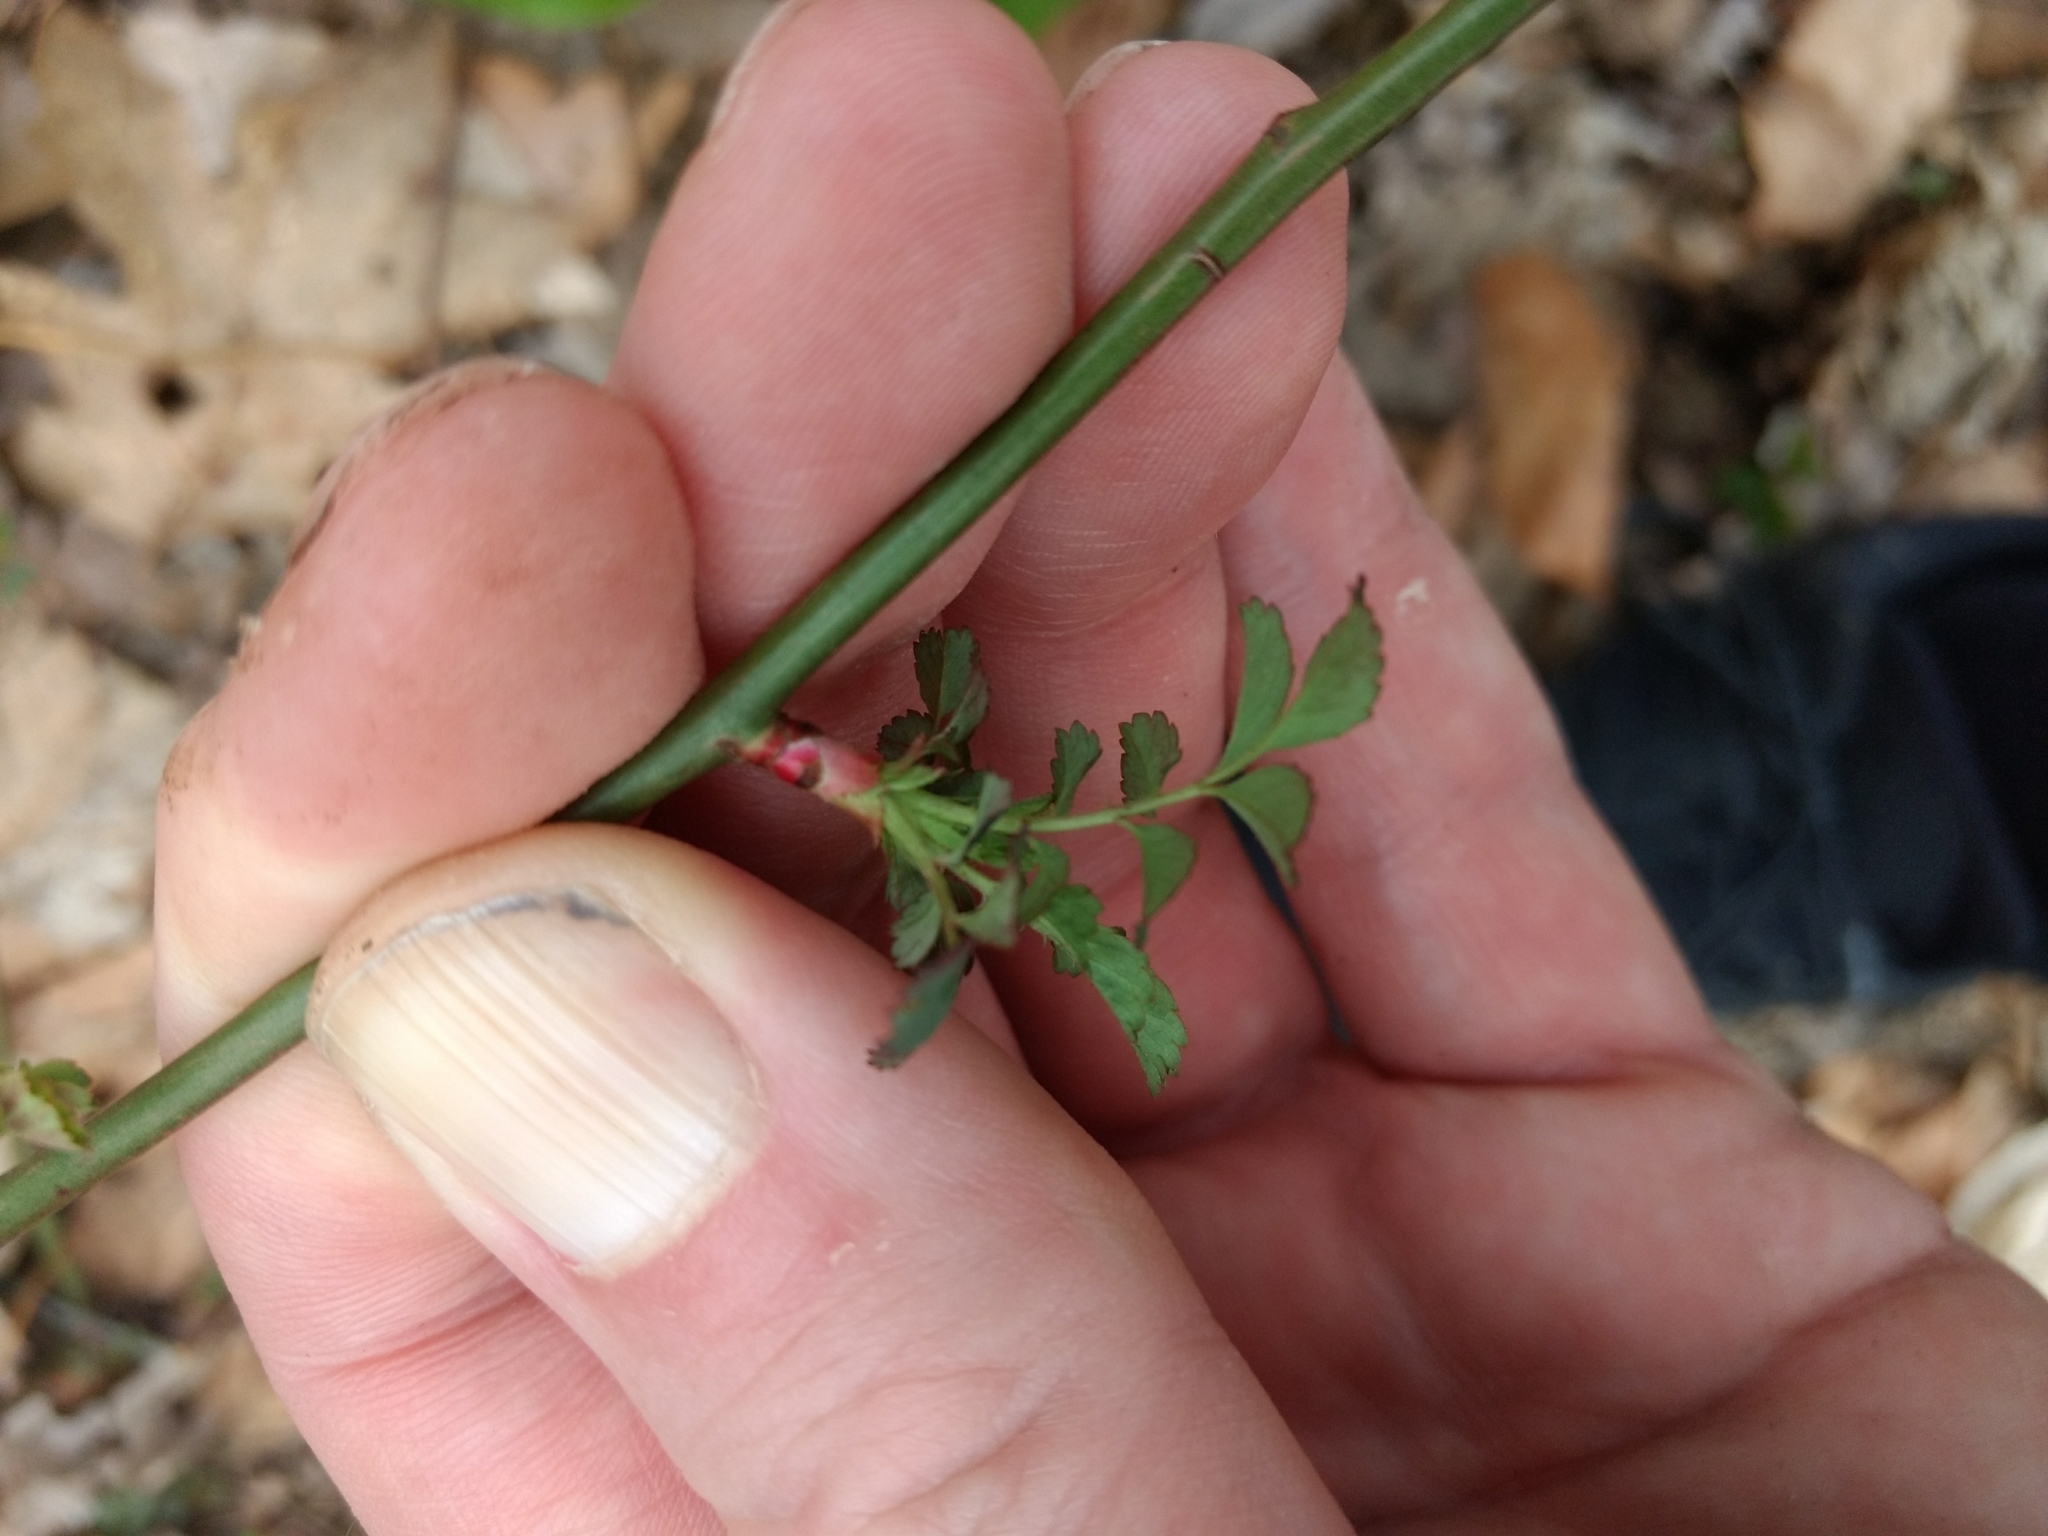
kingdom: Plantae
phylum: Tracheophyta
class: Magnoliopsida
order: Rosales
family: Rosaceae
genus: Rosa
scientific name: Rosa multiflora
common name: Multiflora rose
